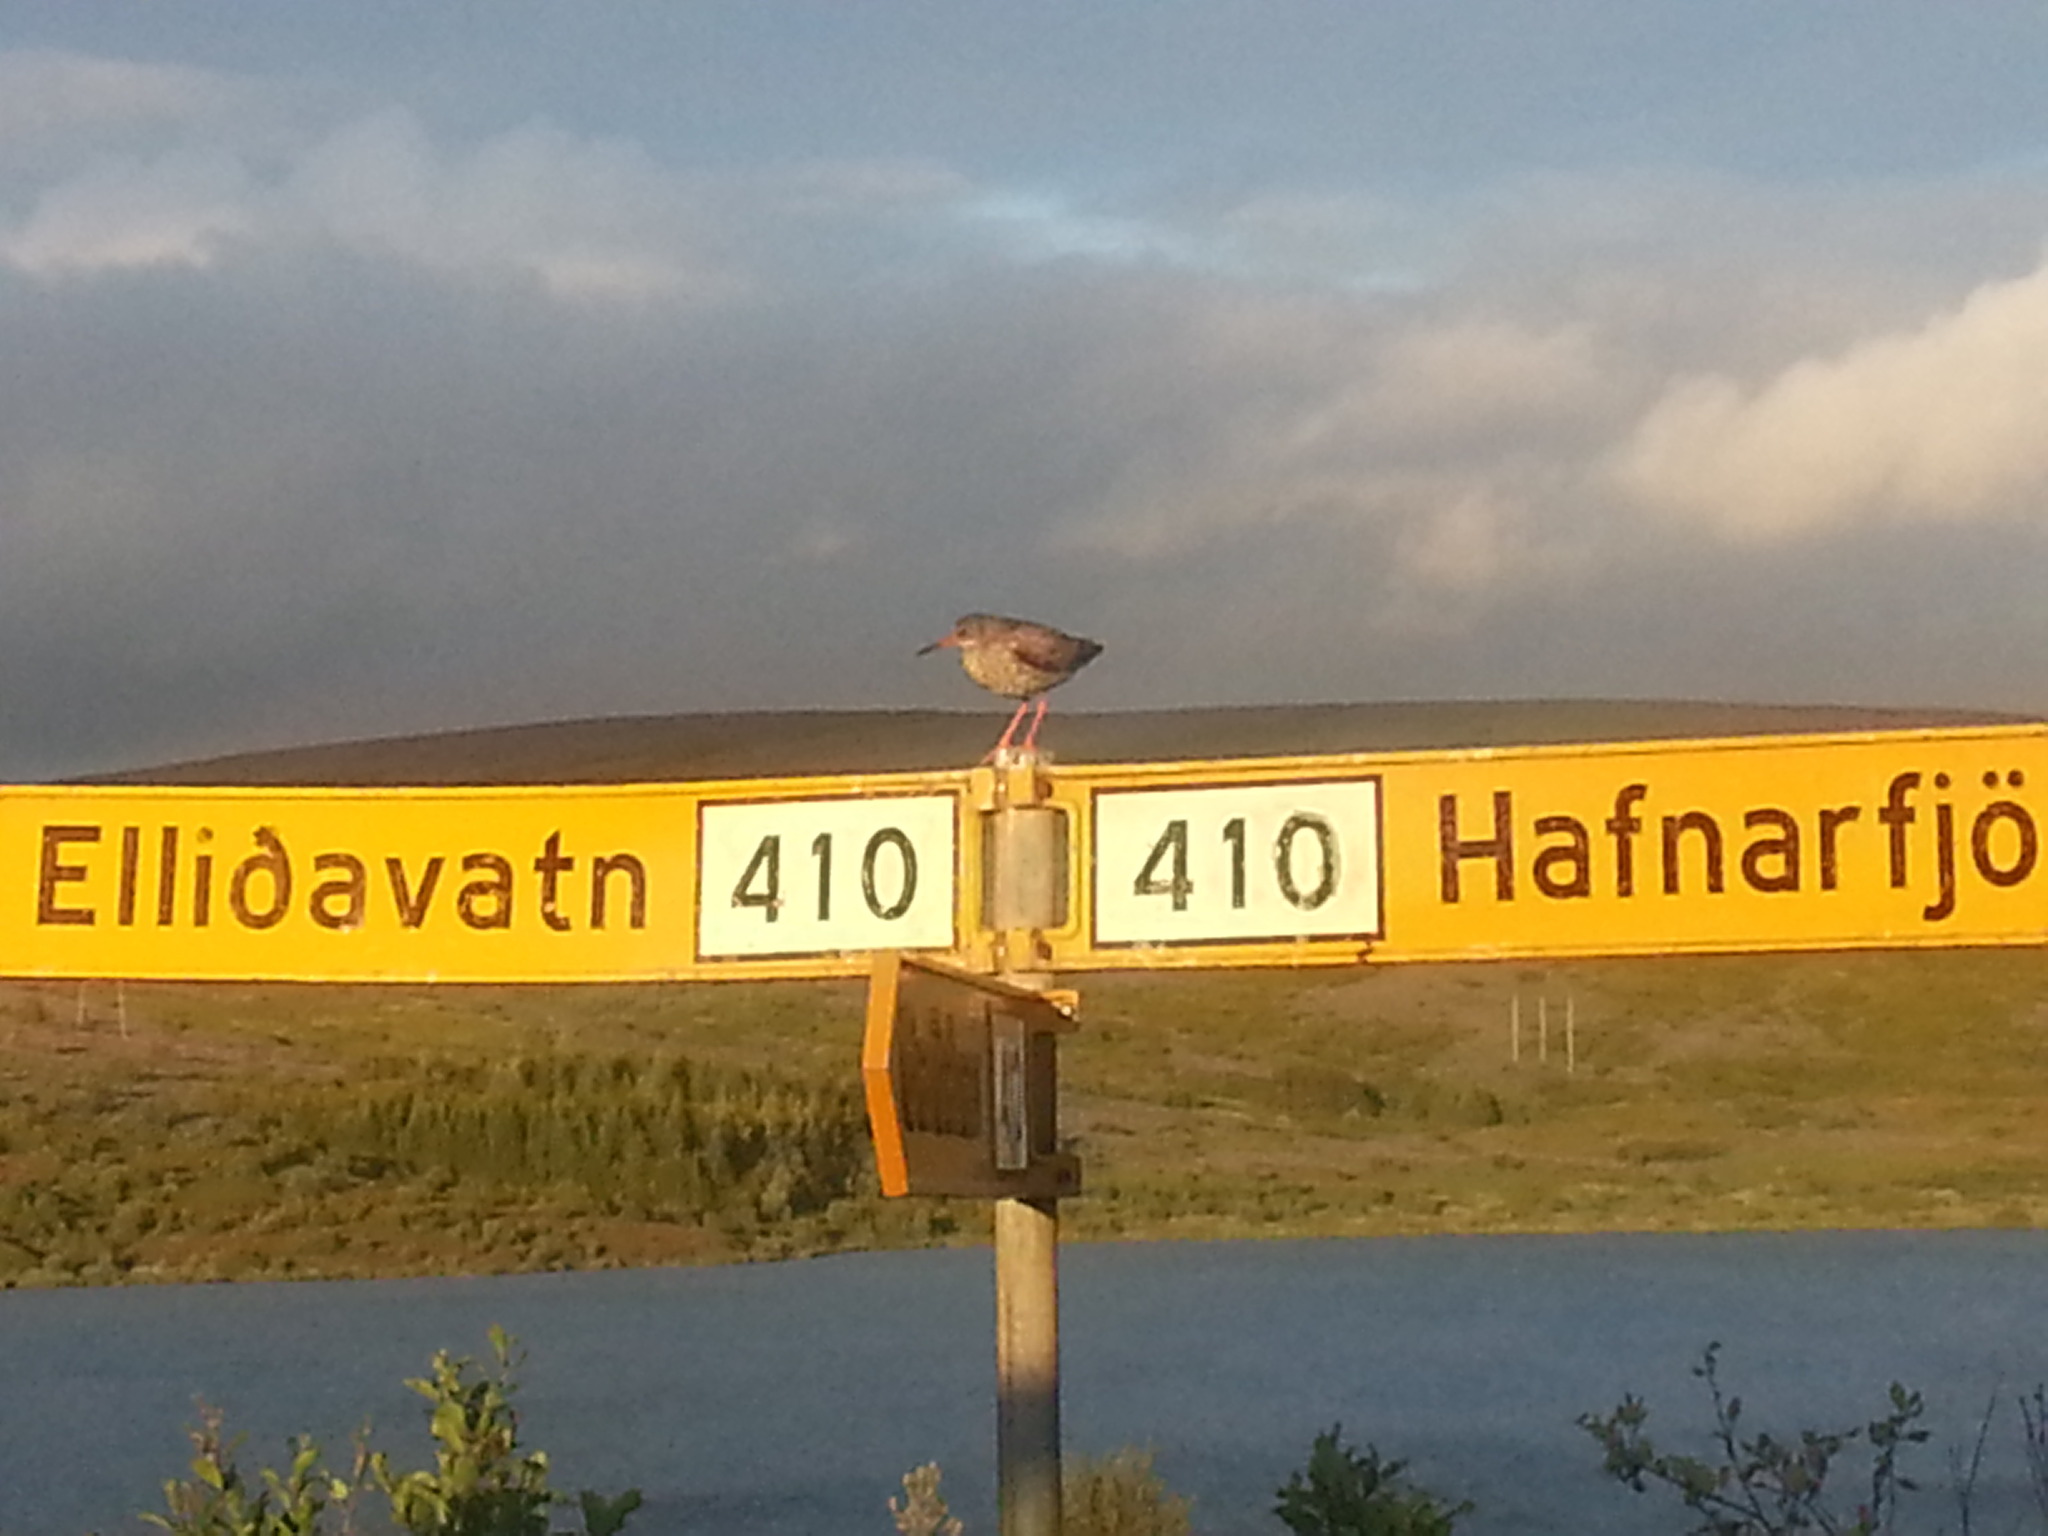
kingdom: Animalia
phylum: Chordata
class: Aves
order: Charadriiformes
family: Scolopacidae
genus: Tringa
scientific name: Tringa totanus
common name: Common redshank
